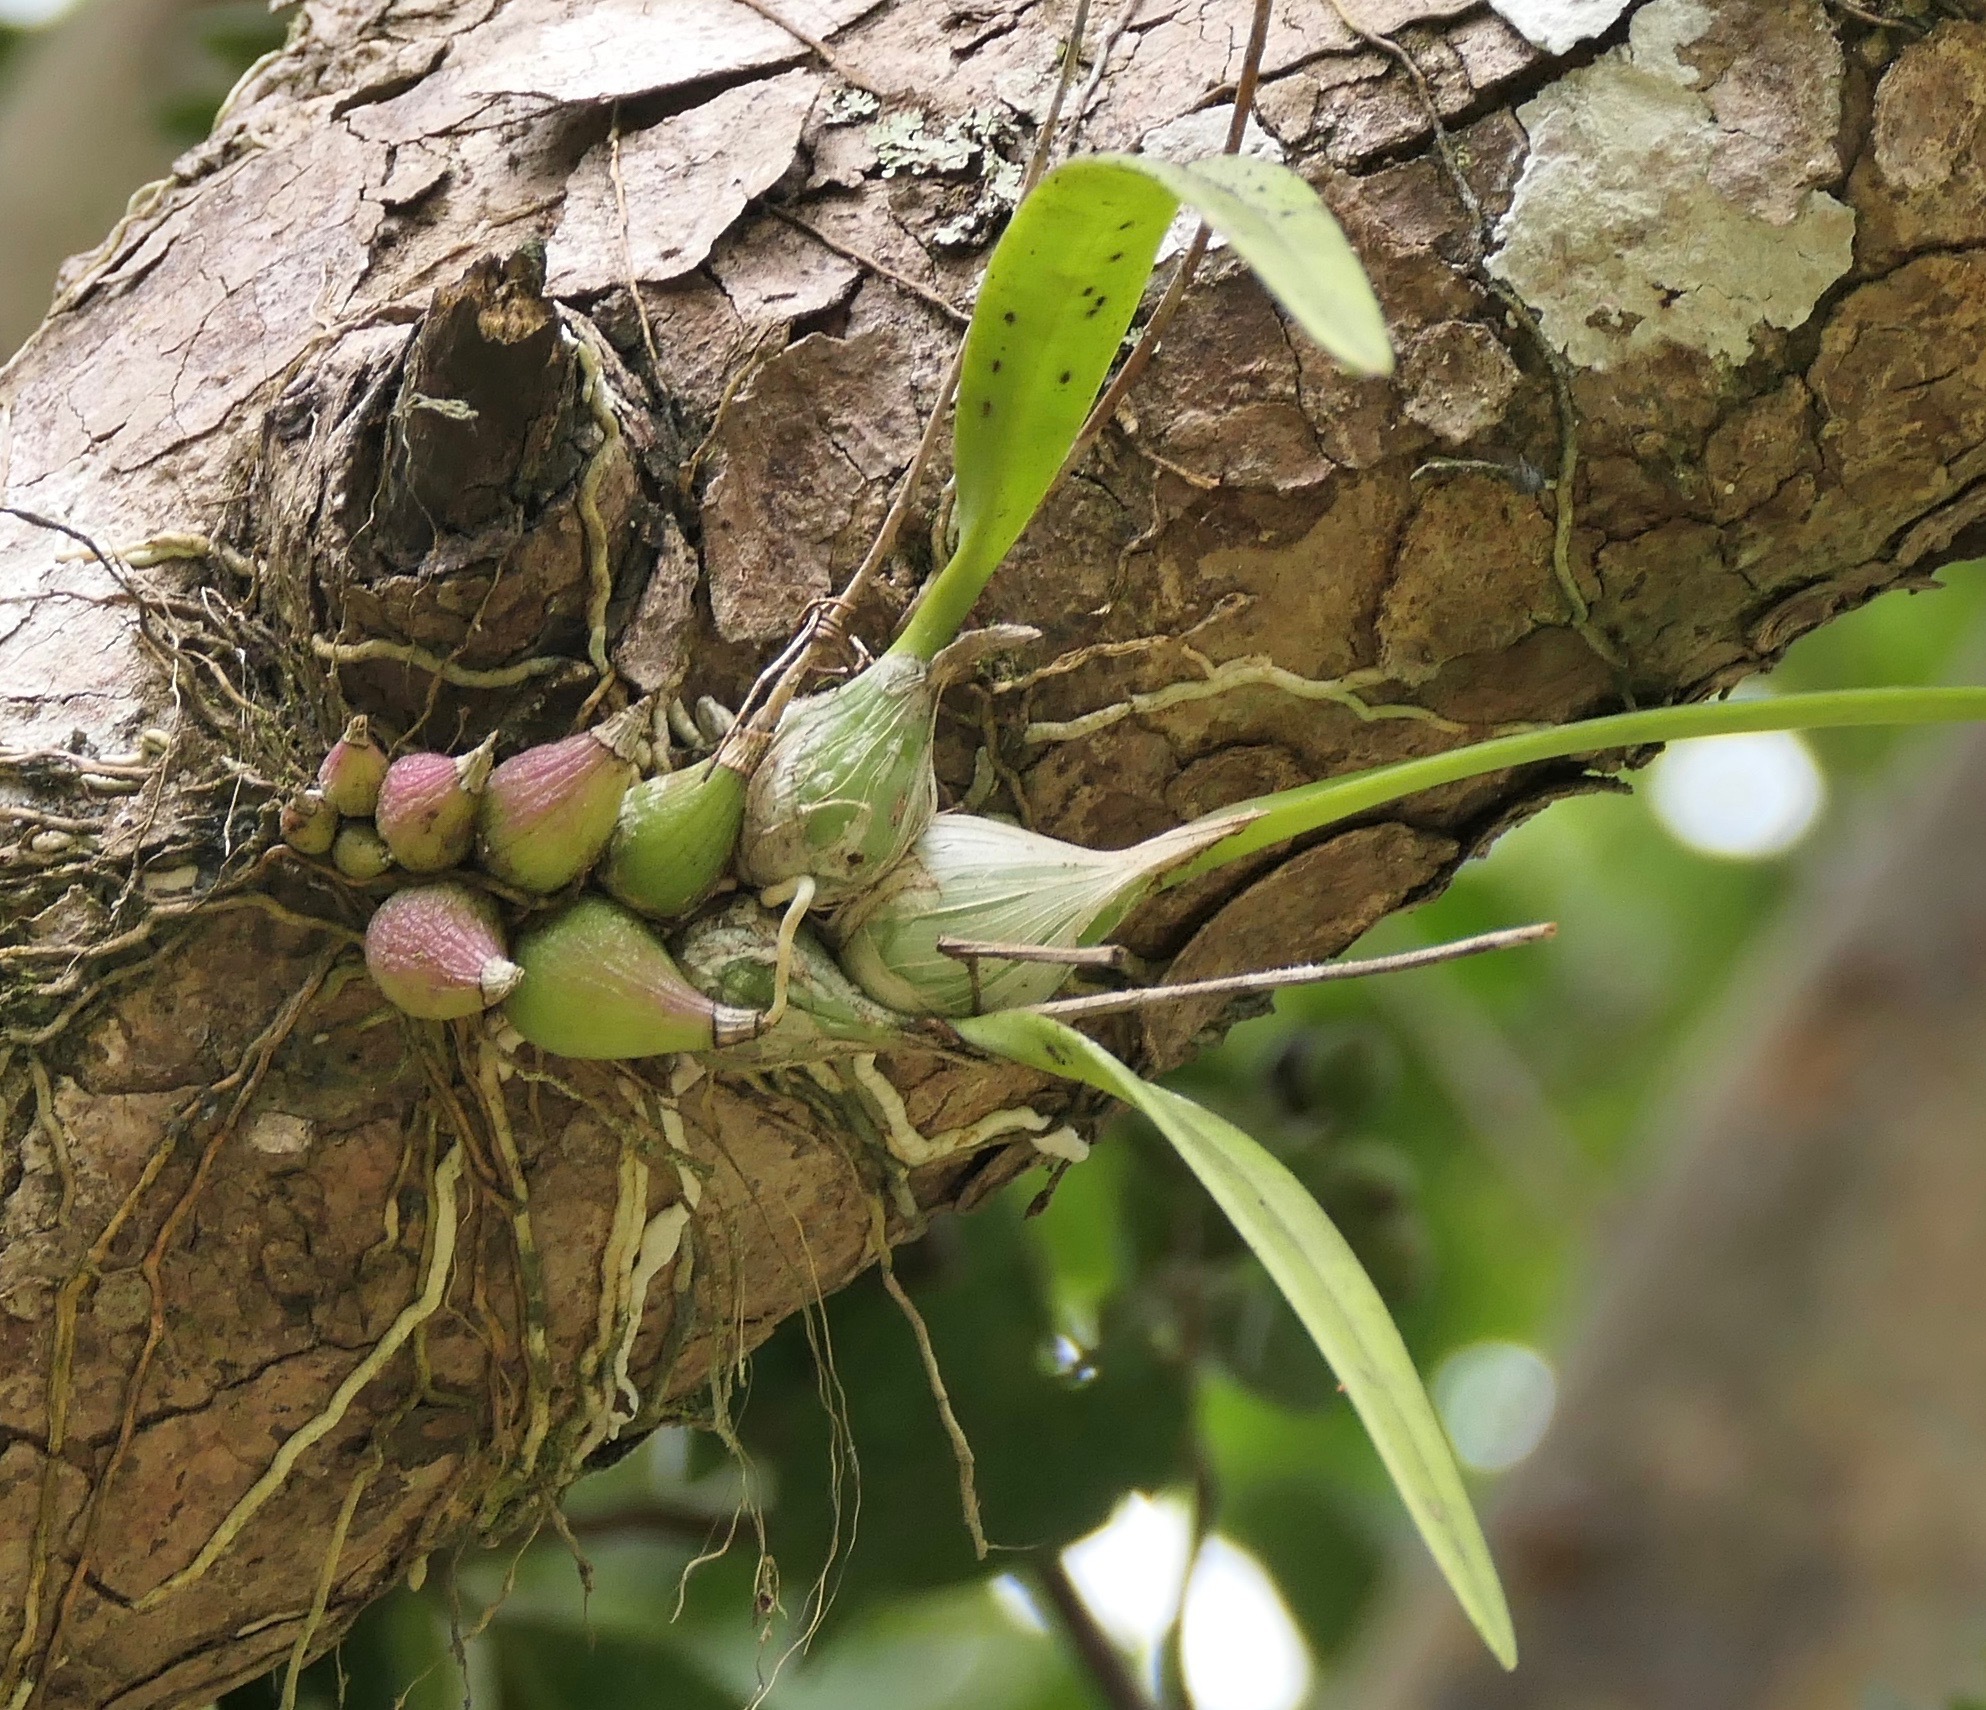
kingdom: Plantae
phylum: Tracheophyta
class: Liliopsida
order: Asparagales
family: Orchidaceae
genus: Encyclia
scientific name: Encyclia tampensis
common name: Florida butterfly orchid
